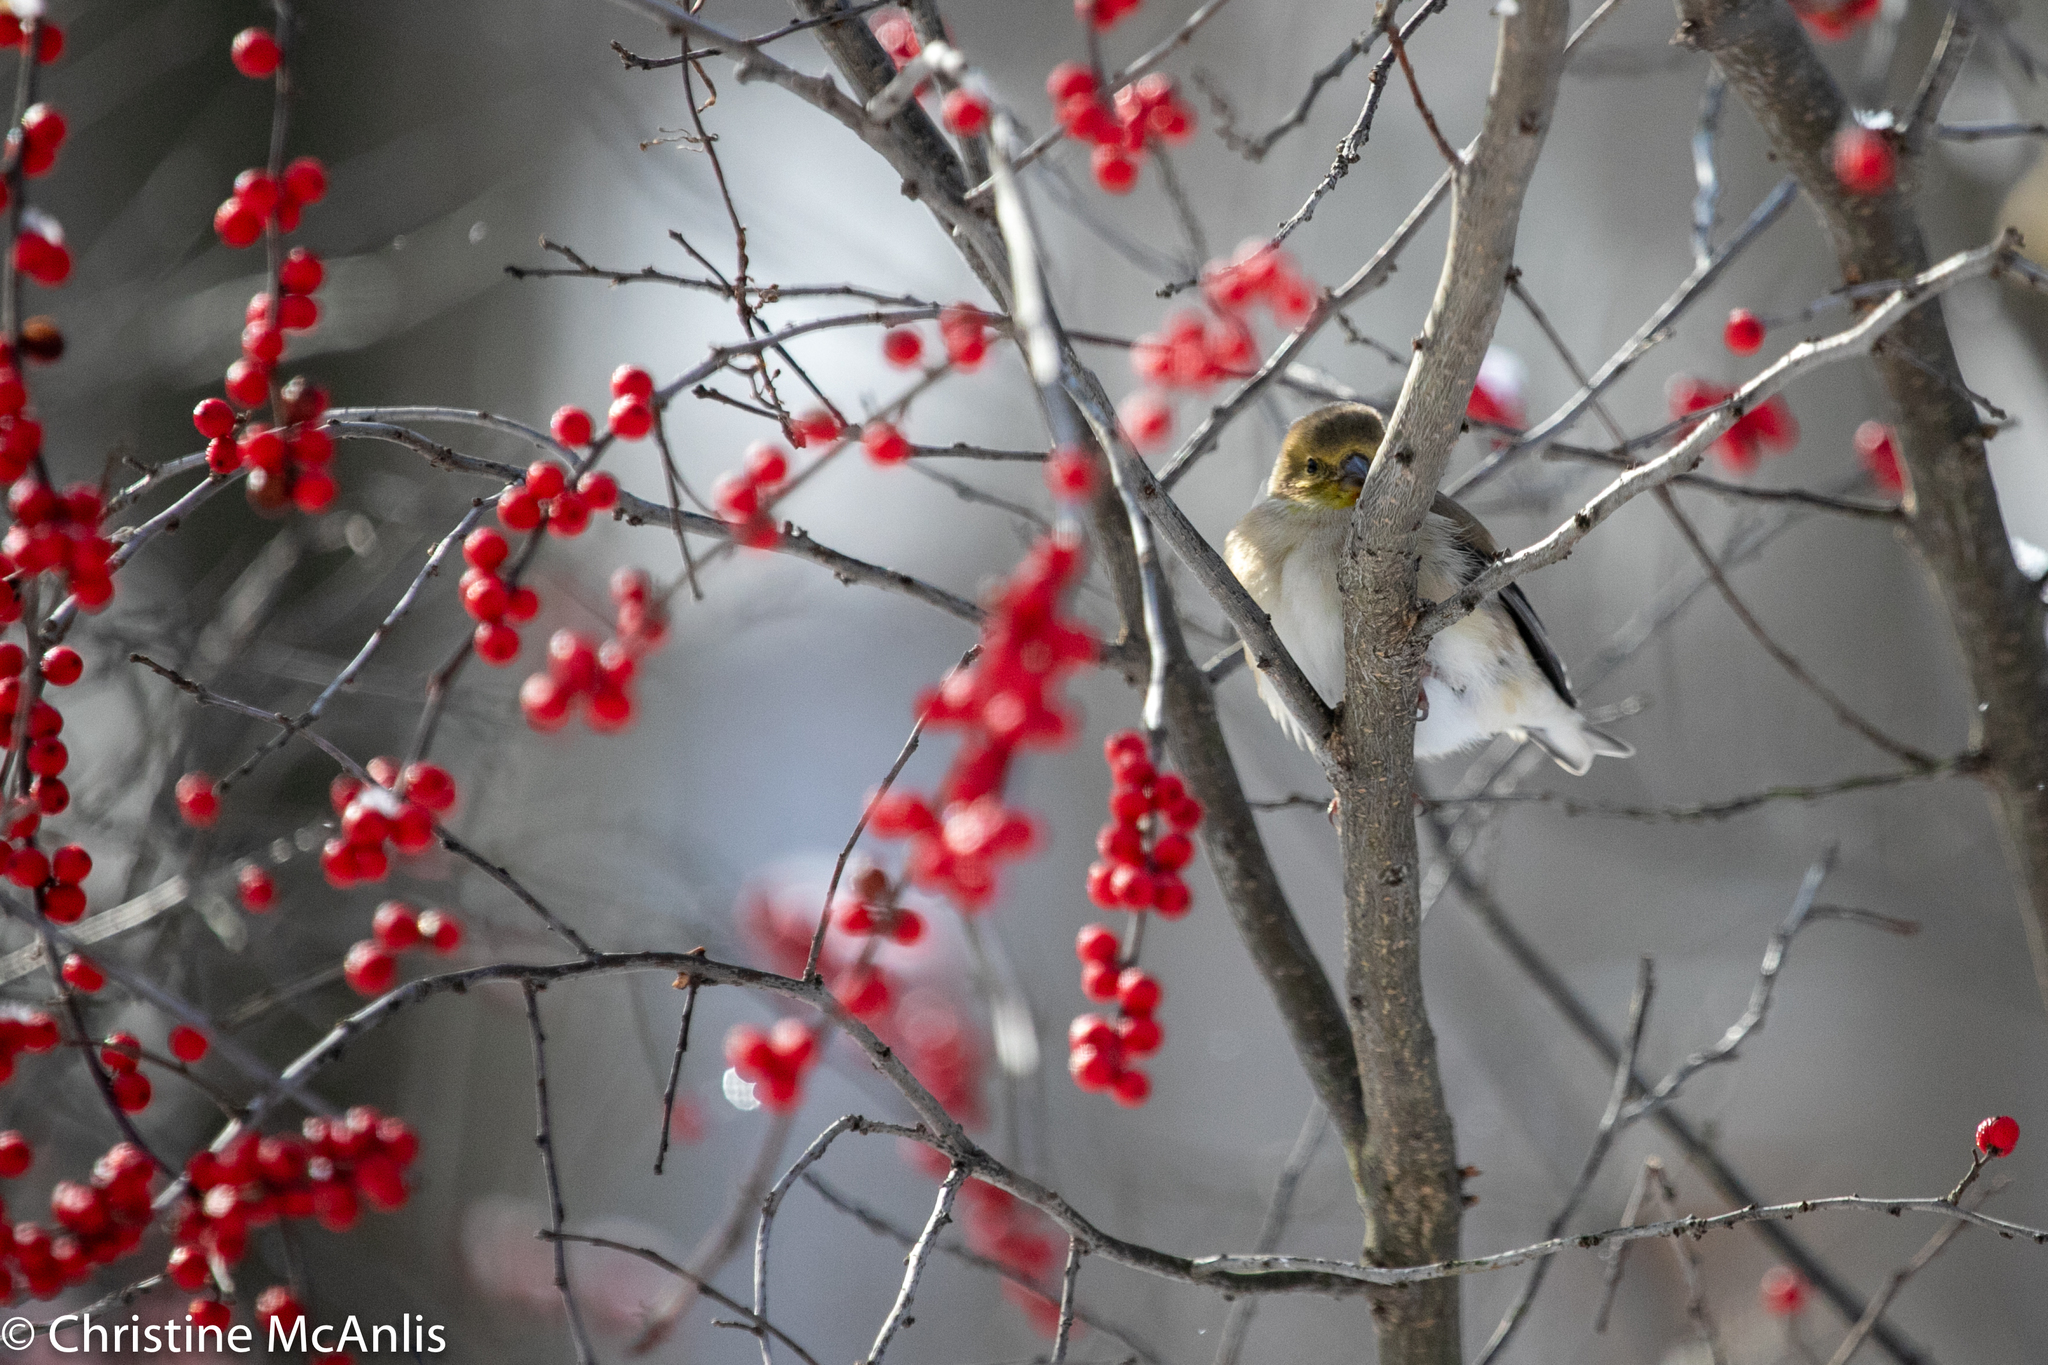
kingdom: Animalia
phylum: Chordata
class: Aves
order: Passeriformes
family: Fringillidae
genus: Spinus
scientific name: Spinus tristis
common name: American goldfinch
